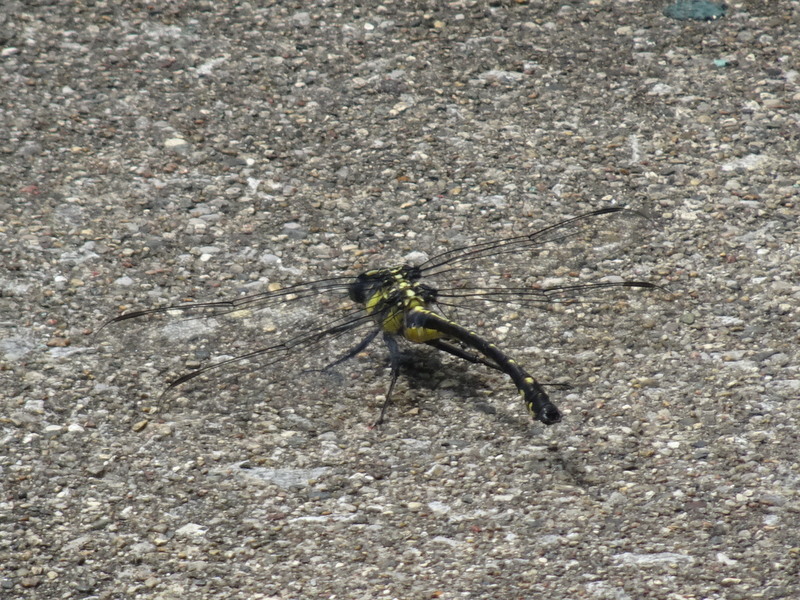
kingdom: Animalia
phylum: Arthropoda
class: Insecta
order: Odonata
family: Gomphidae
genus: Hagenius
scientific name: Hagenius brevistylus
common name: Dragonhunter
